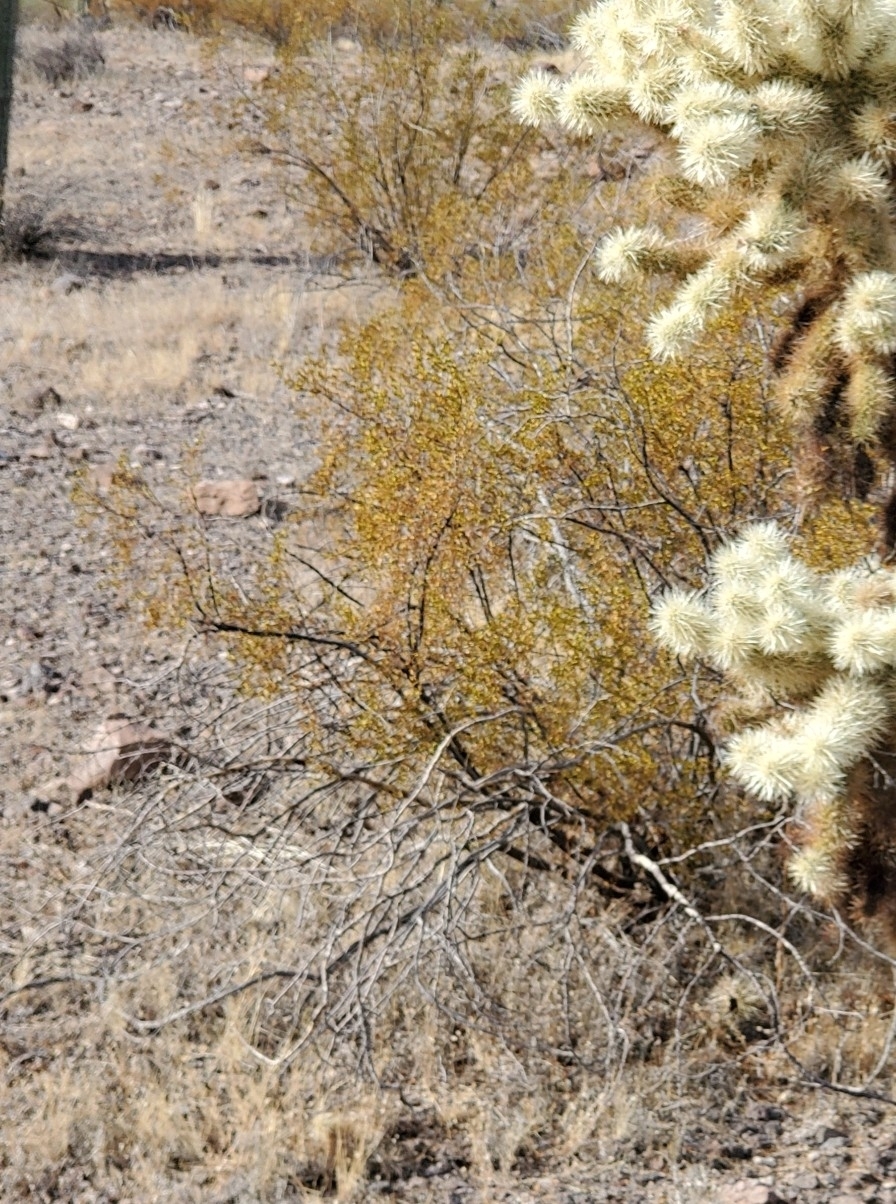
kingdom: Plantae
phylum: Tracheophyta
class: Magnoliopsida
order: Zygophyllales
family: Zygophyllaceae
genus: Larrea
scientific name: Larrea tridentata
